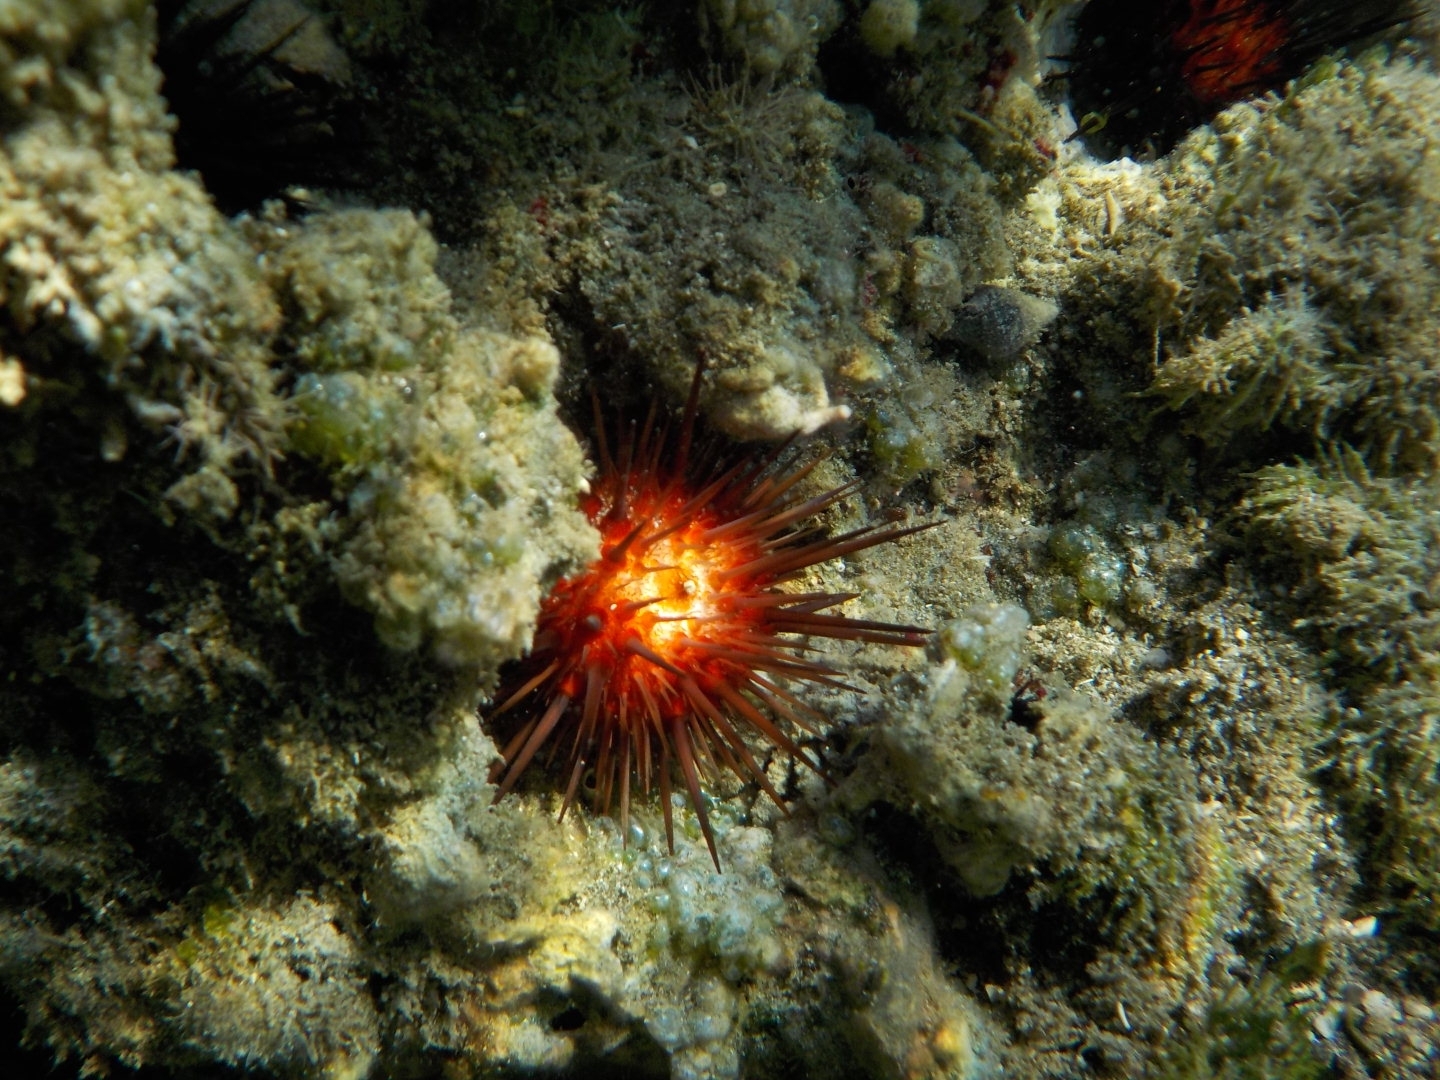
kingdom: Animalia
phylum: Echinodermata
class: Echinoidea
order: Camarodonta
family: Echinometridae
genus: Echinometra
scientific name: Echinometra lucunter
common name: Rock urchin
